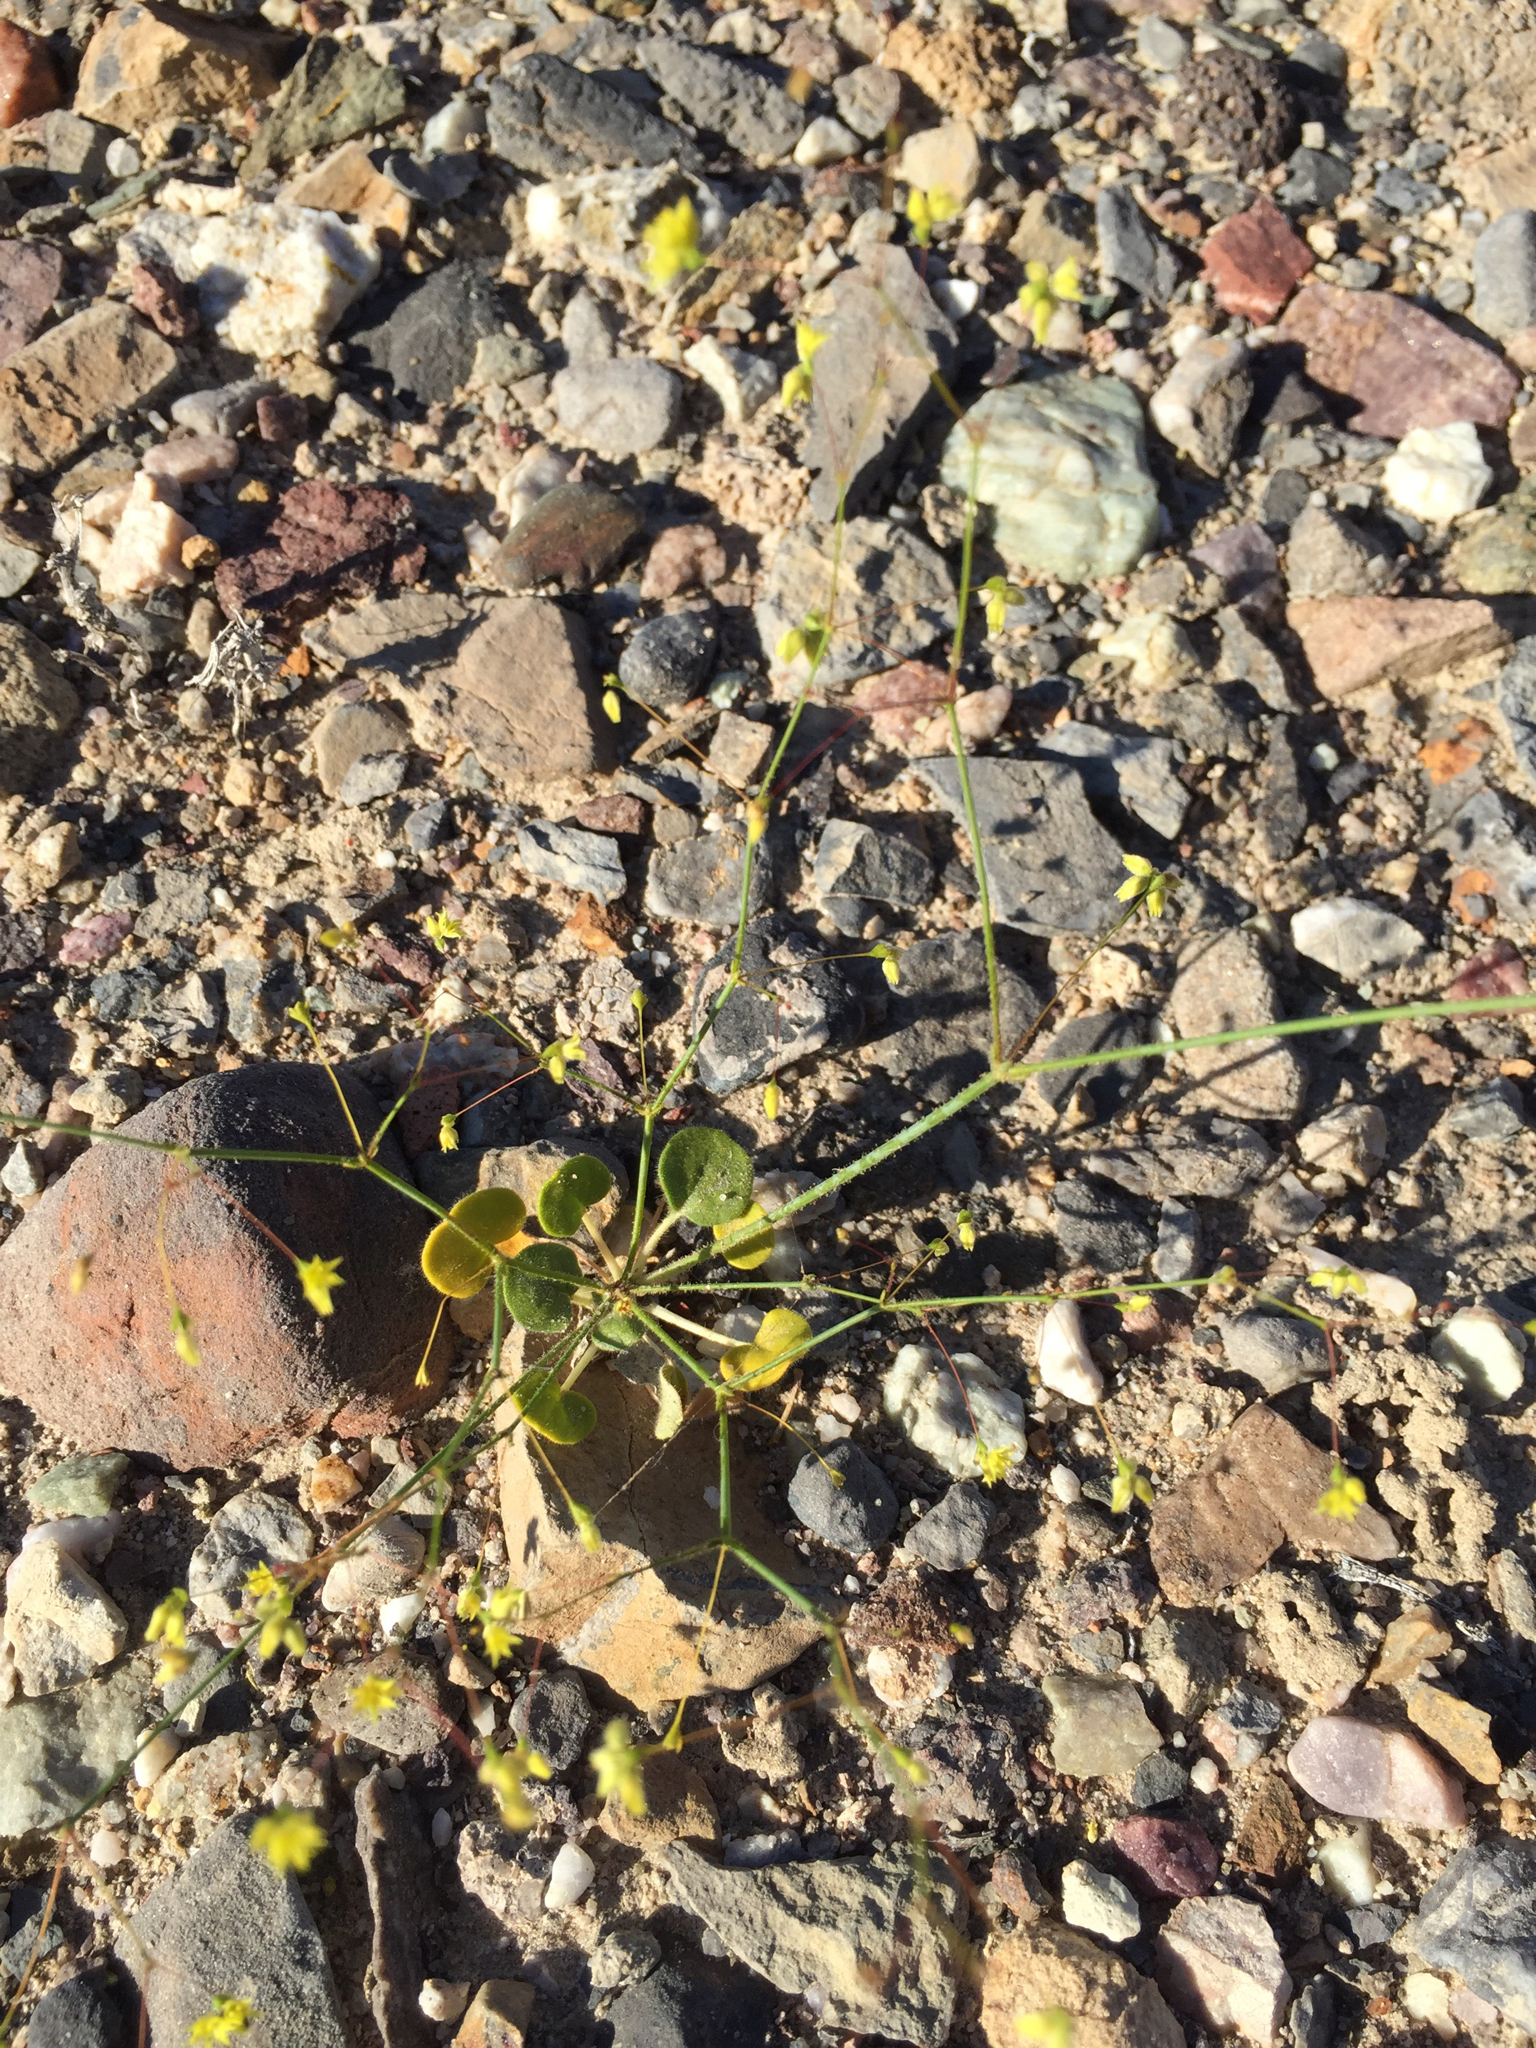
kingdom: Plantae
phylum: Tracheophyta
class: Magnoliopsida
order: Caryophyllales
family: Polygonaceae
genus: Eriogonum
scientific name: Eriogonum contiguum
